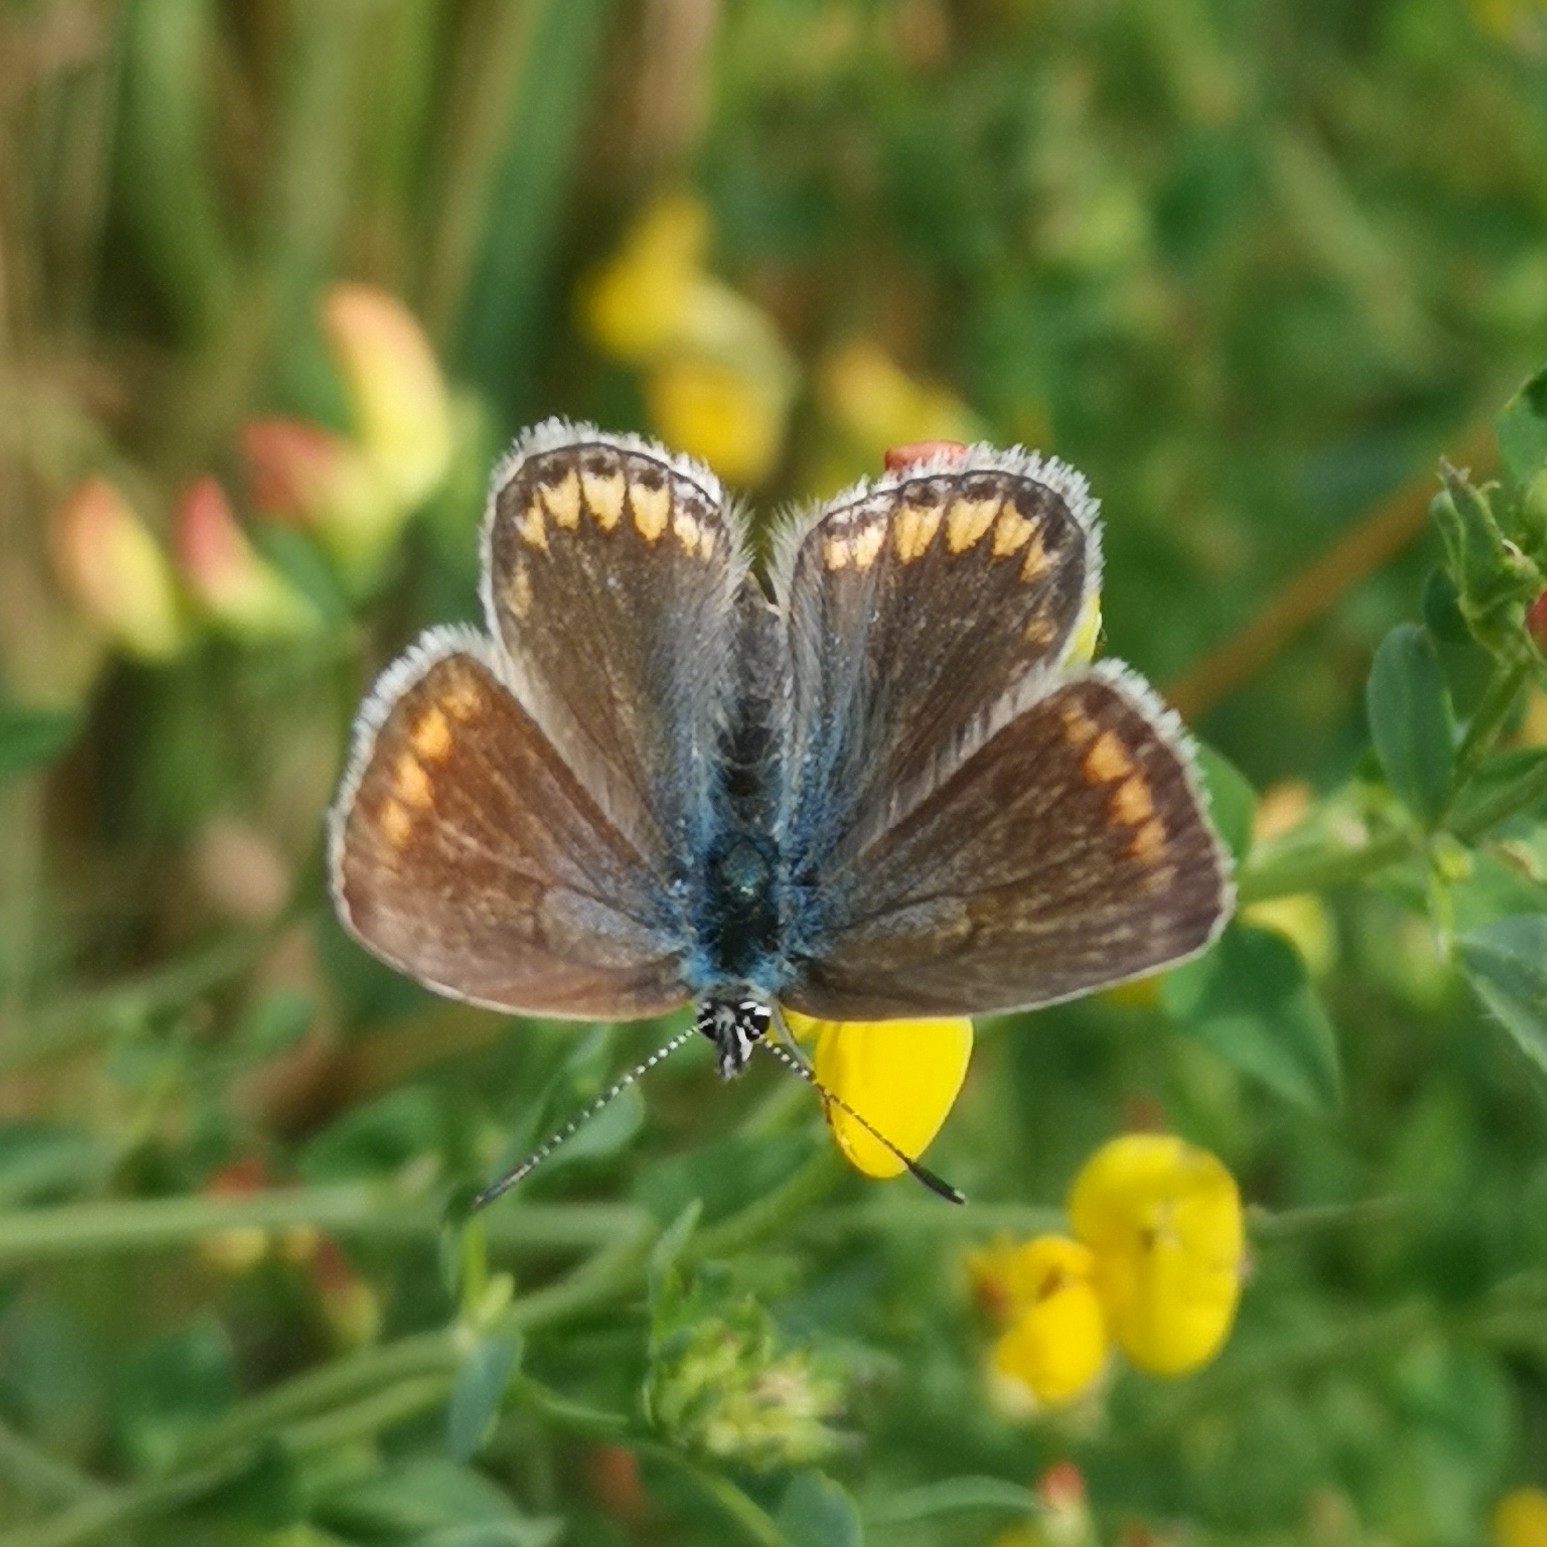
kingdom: Animalia
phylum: Arthropoda
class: Insecta
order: Lepidoptera
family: Lycaenidae
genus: Polyommatus
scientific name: Polyommatus icarus
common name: Common blue
